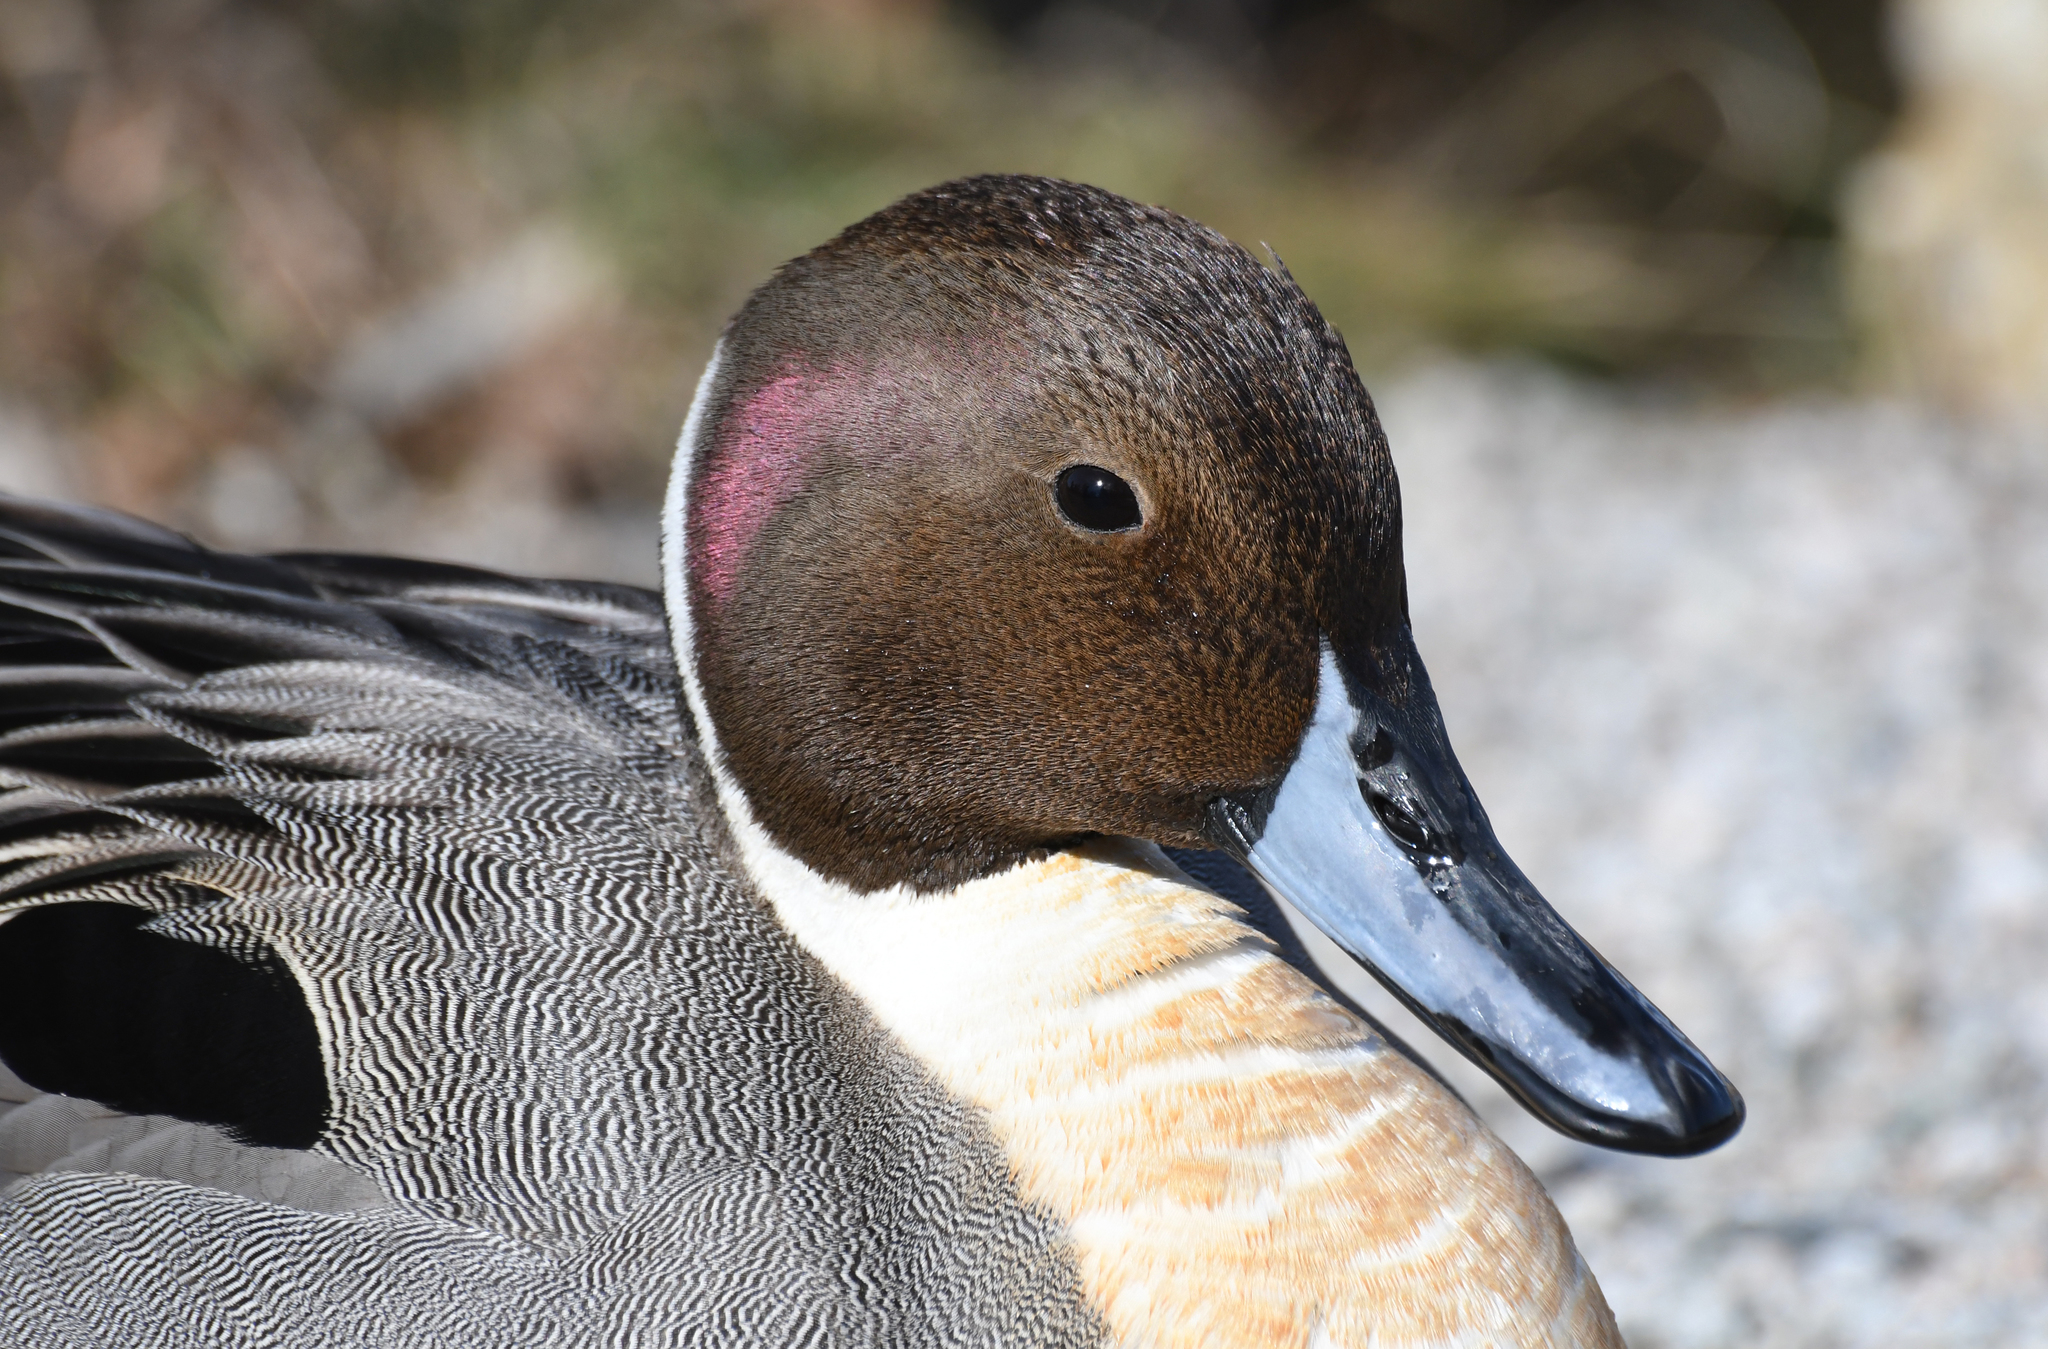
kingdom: Animalia
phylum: Chordata
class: Aves
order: Anseriformes
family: Anatidae
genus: Anas
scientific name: Anas acuta
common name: Northern pintail
